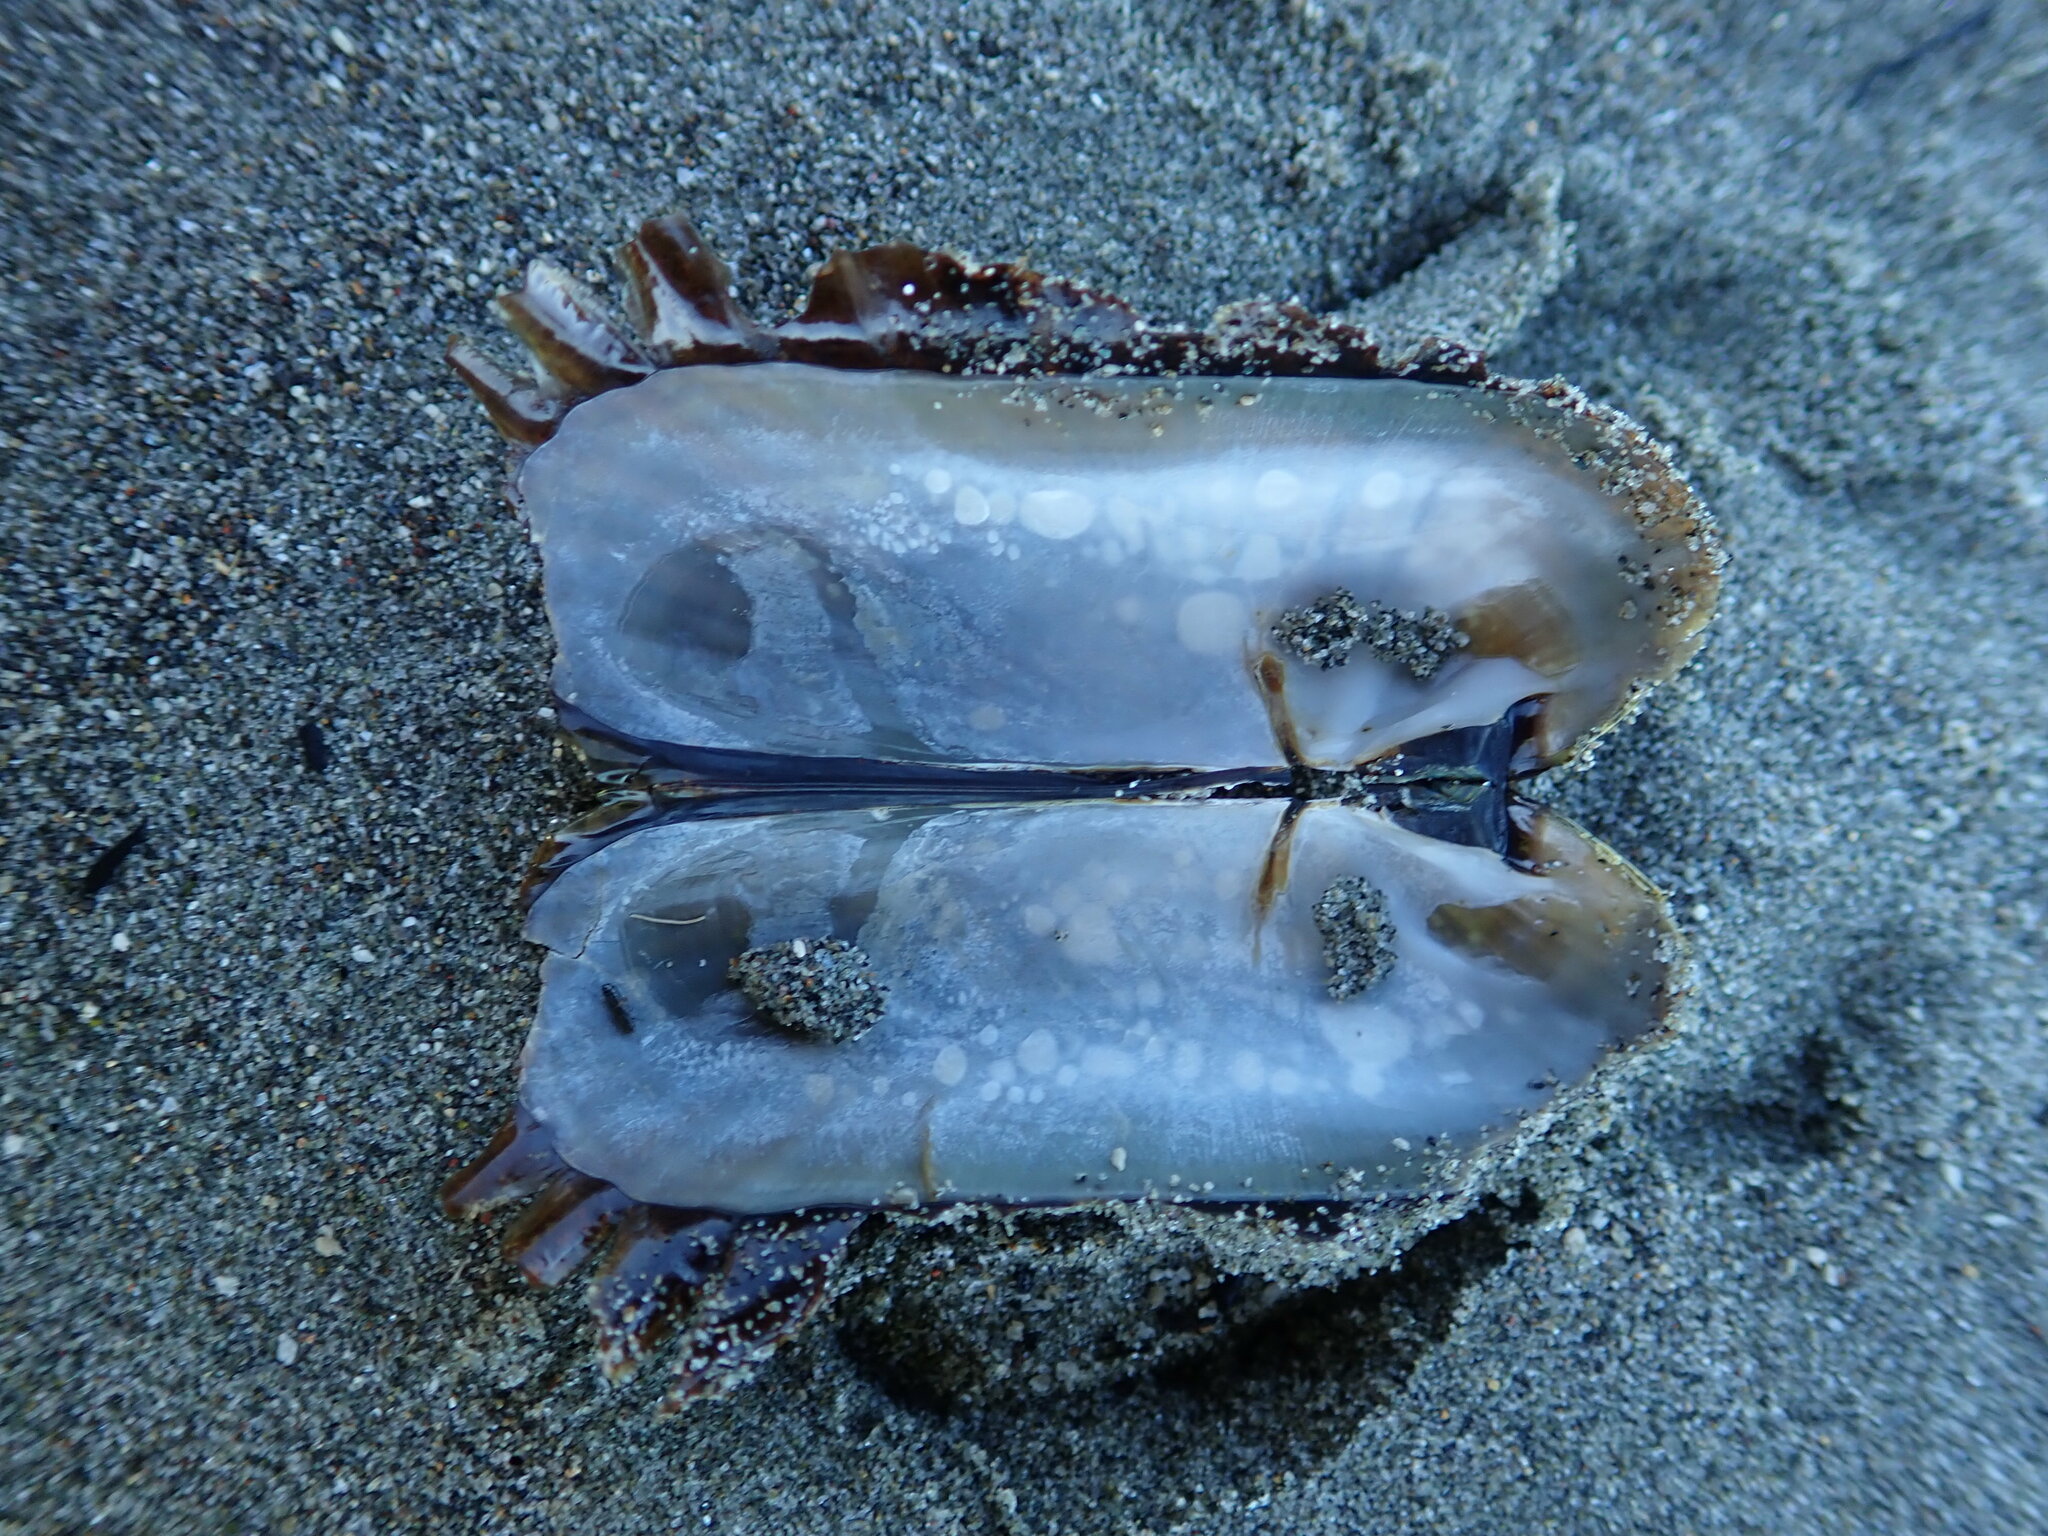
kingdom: Animalia
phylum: Mollusca
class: Bivalvia
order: Solemyida
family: Solemyidae
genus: Solemya
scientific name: Solemya parkinsonii
